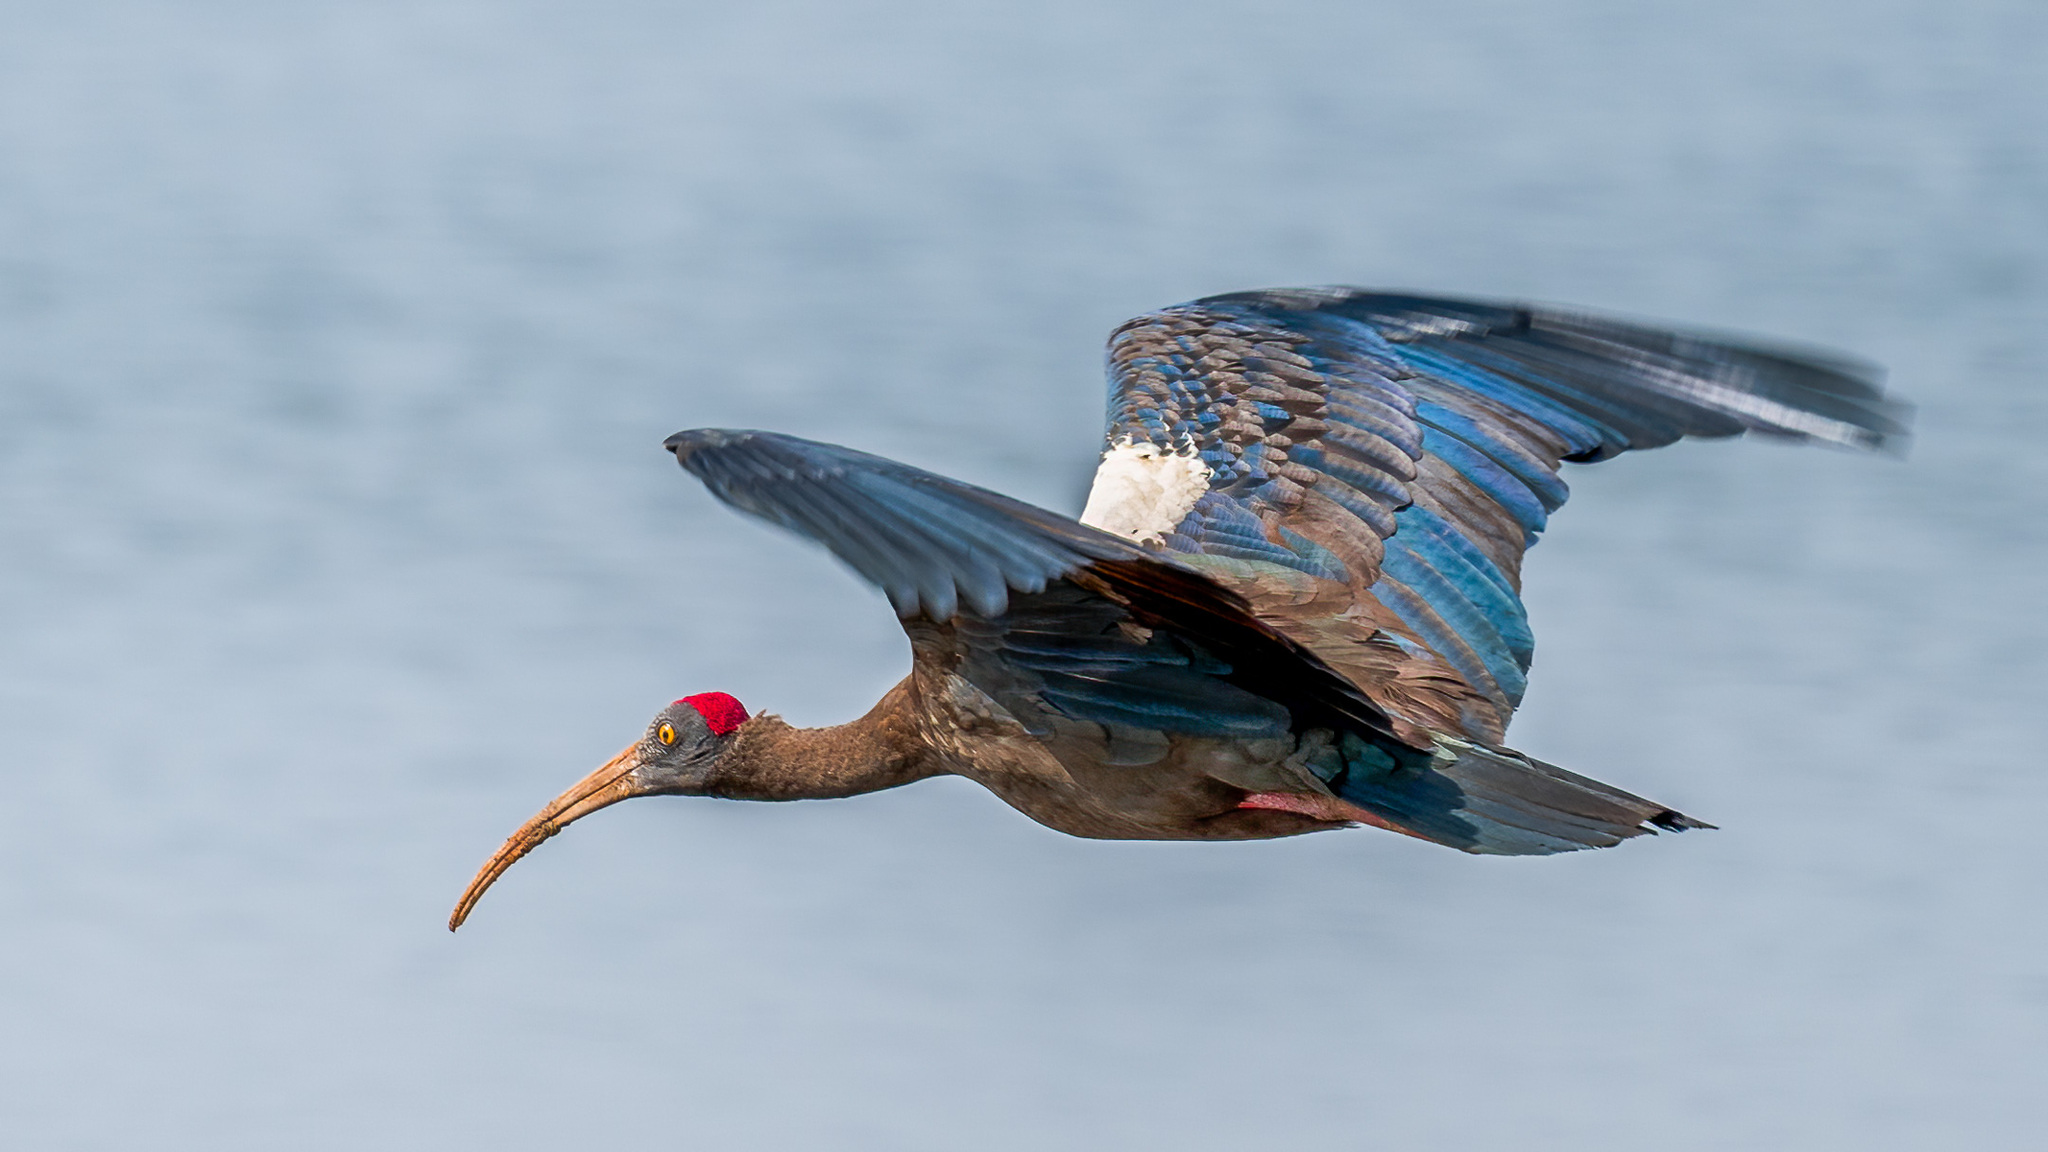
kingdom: Animalia
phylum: Chordata
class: Aves
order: Pelecaniformes
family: Threskiornithidae
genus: Pseudibis
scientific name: Pseudibis papillosa
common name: Red-naped ibis
